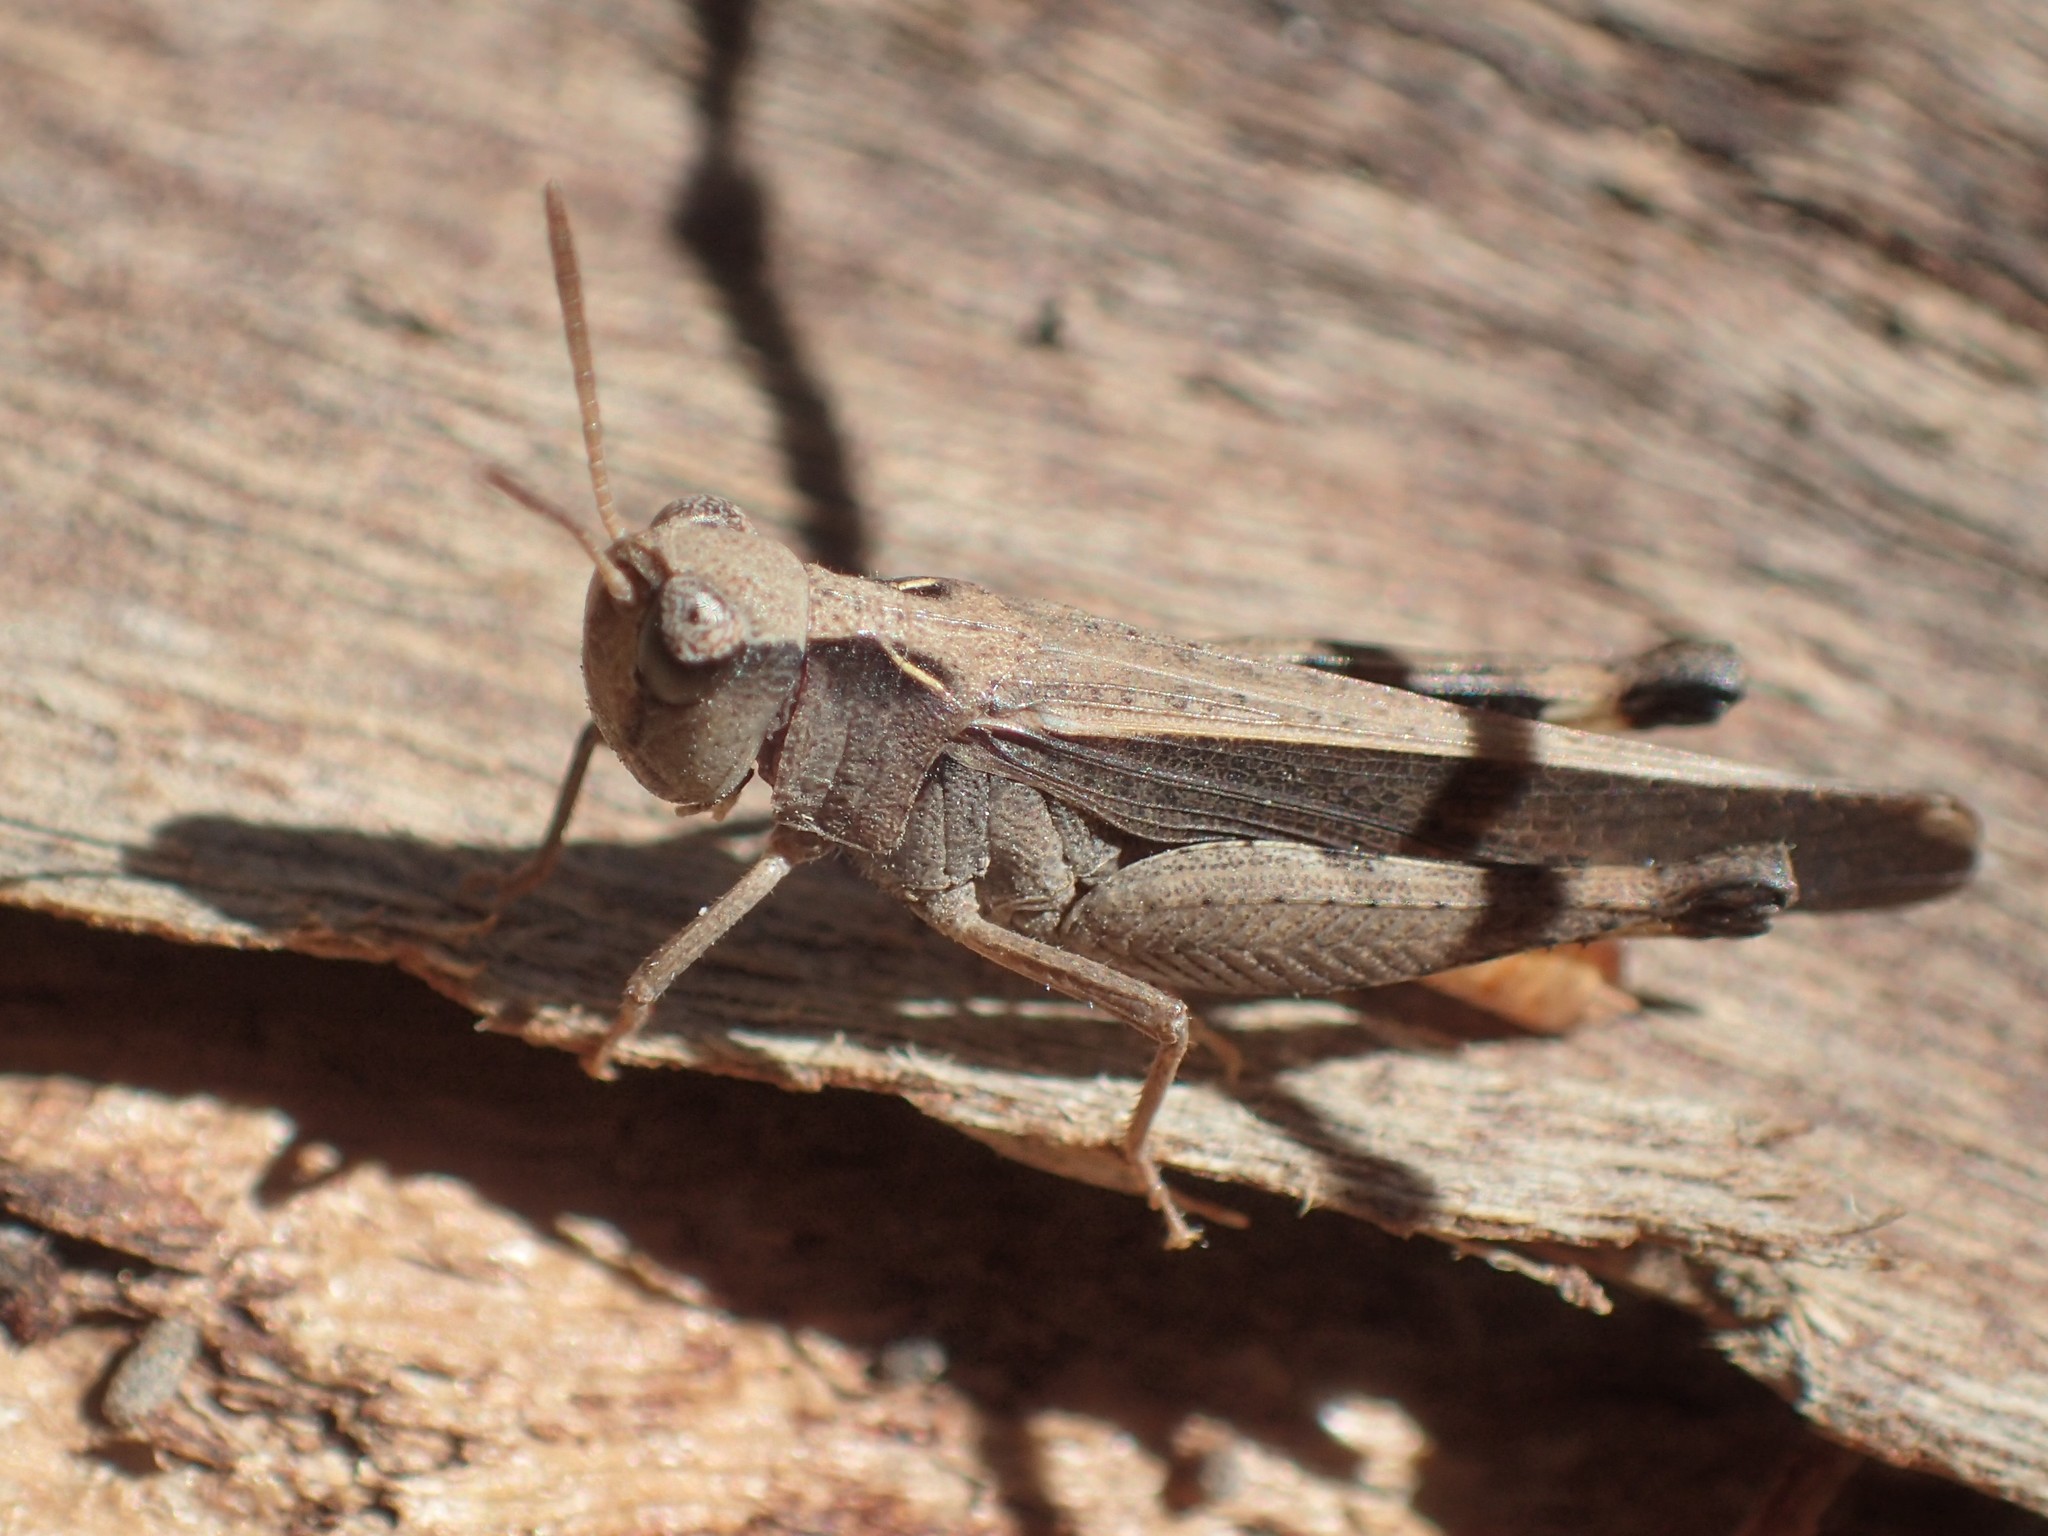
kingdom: Animalia
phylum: Arthropoda
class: Insecta
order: Orthoptera
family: Acrididae
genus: Cryptobothrus
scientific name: Cryptobothrus chrysophorus
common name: Golden bandwing
